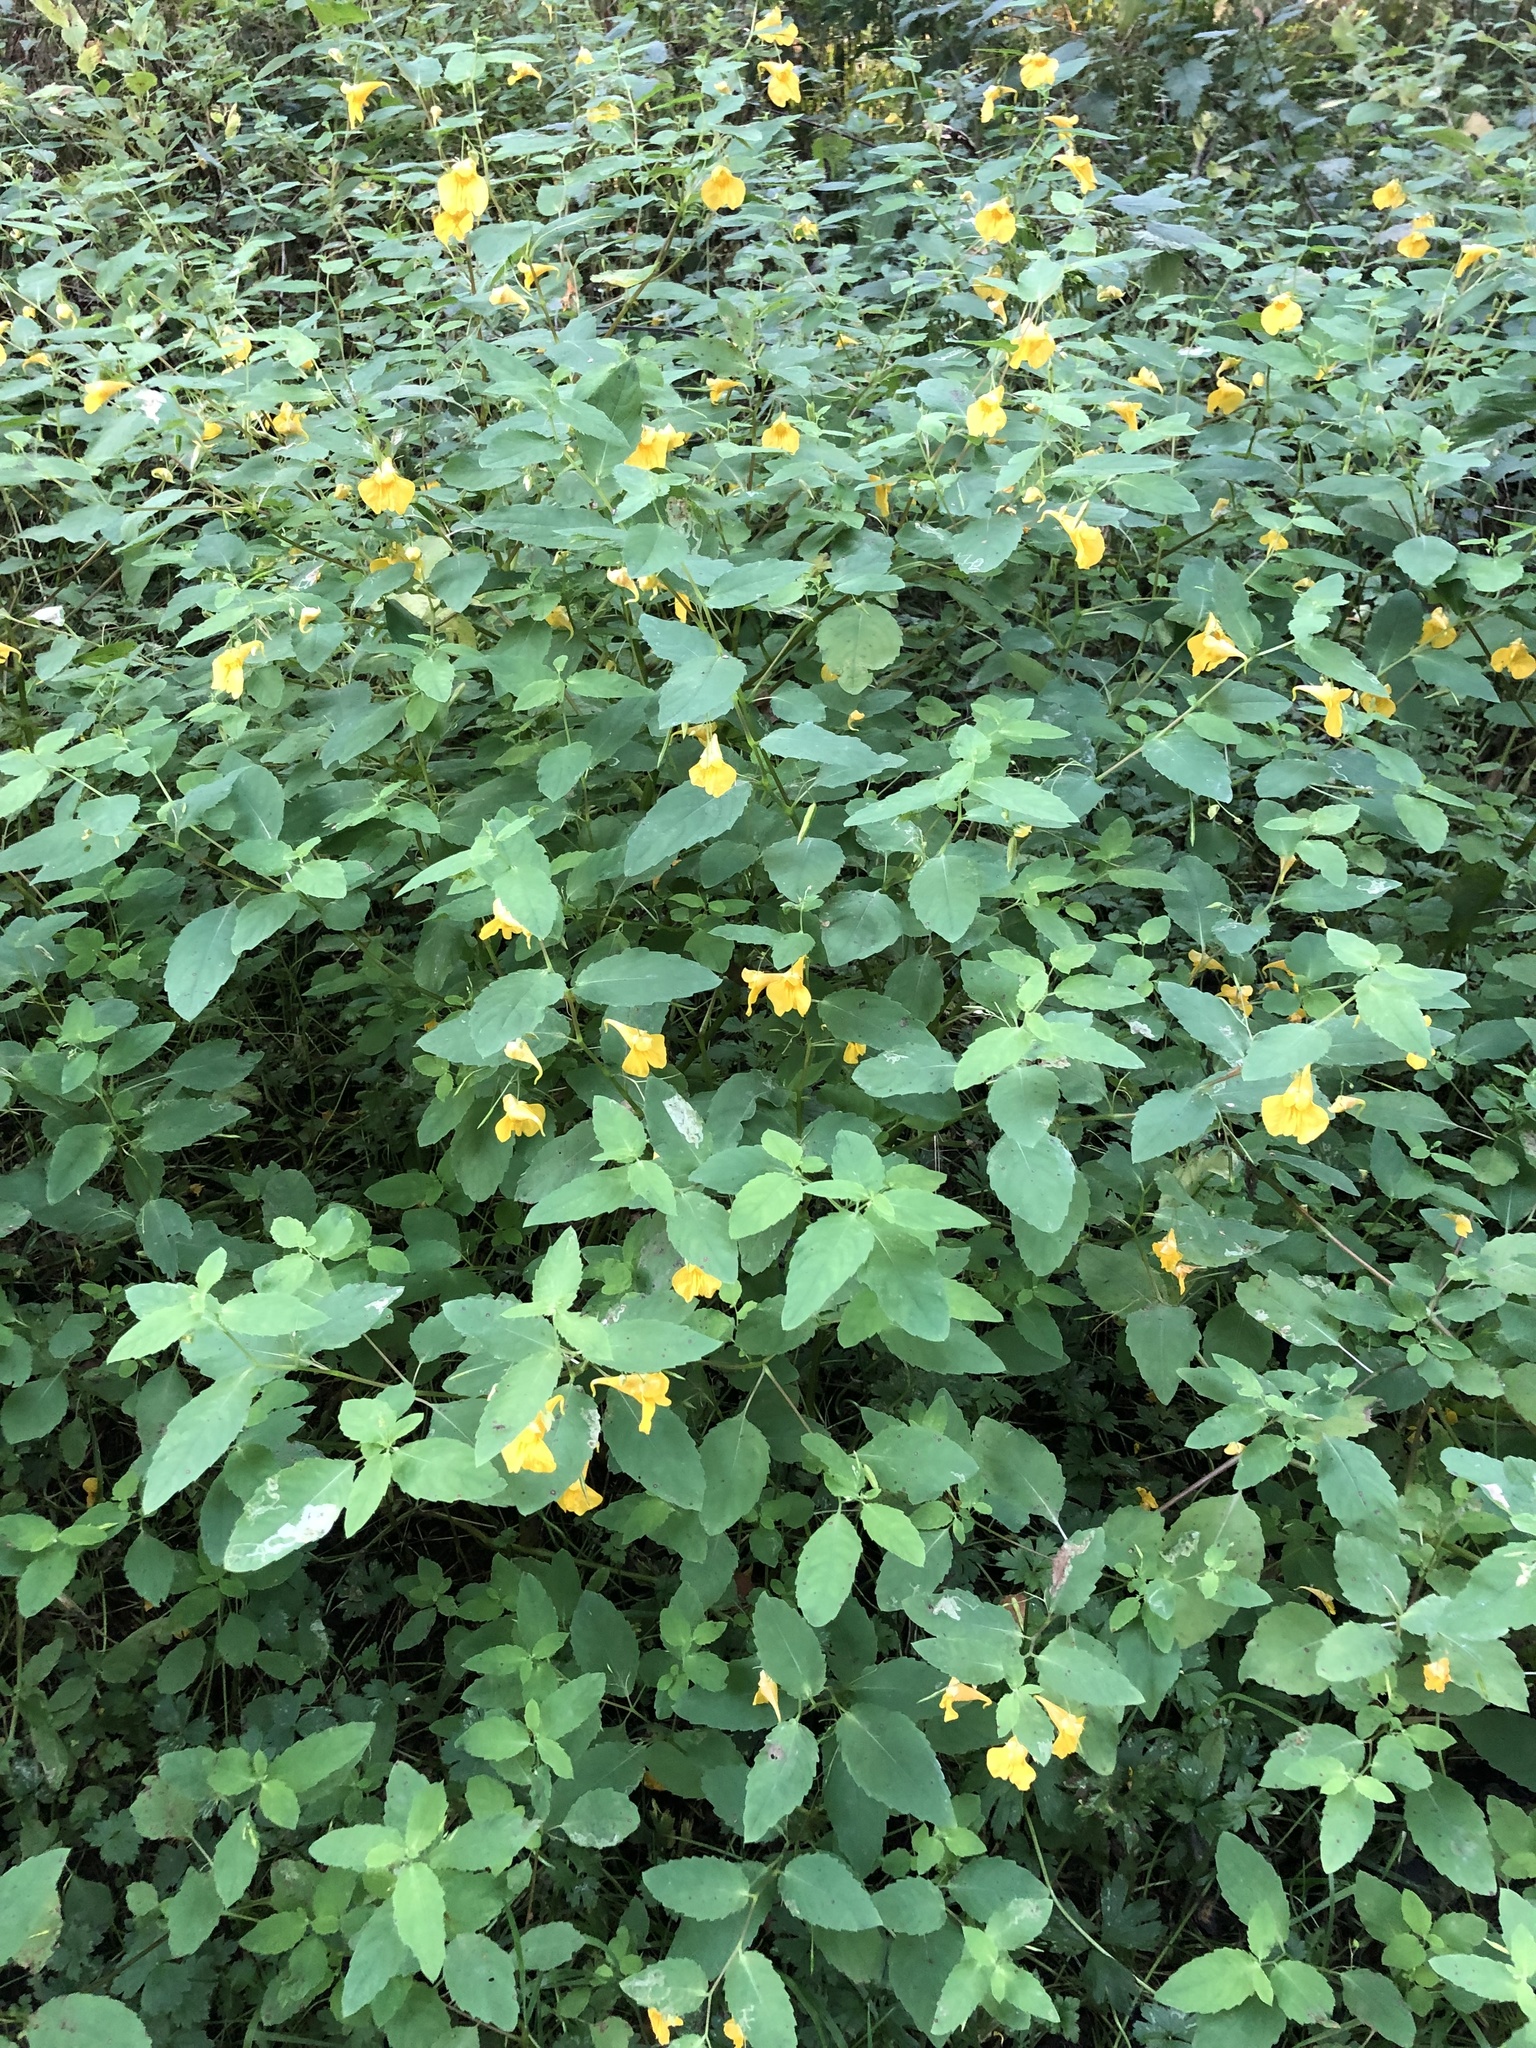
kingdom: Plantae
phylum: Tracheophyta
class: Magnoliopsida
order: Ericales
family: Balsaminaceae
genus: Impatiens
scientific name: Impatiens noli-tangere
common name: Touch-me-not balsam
